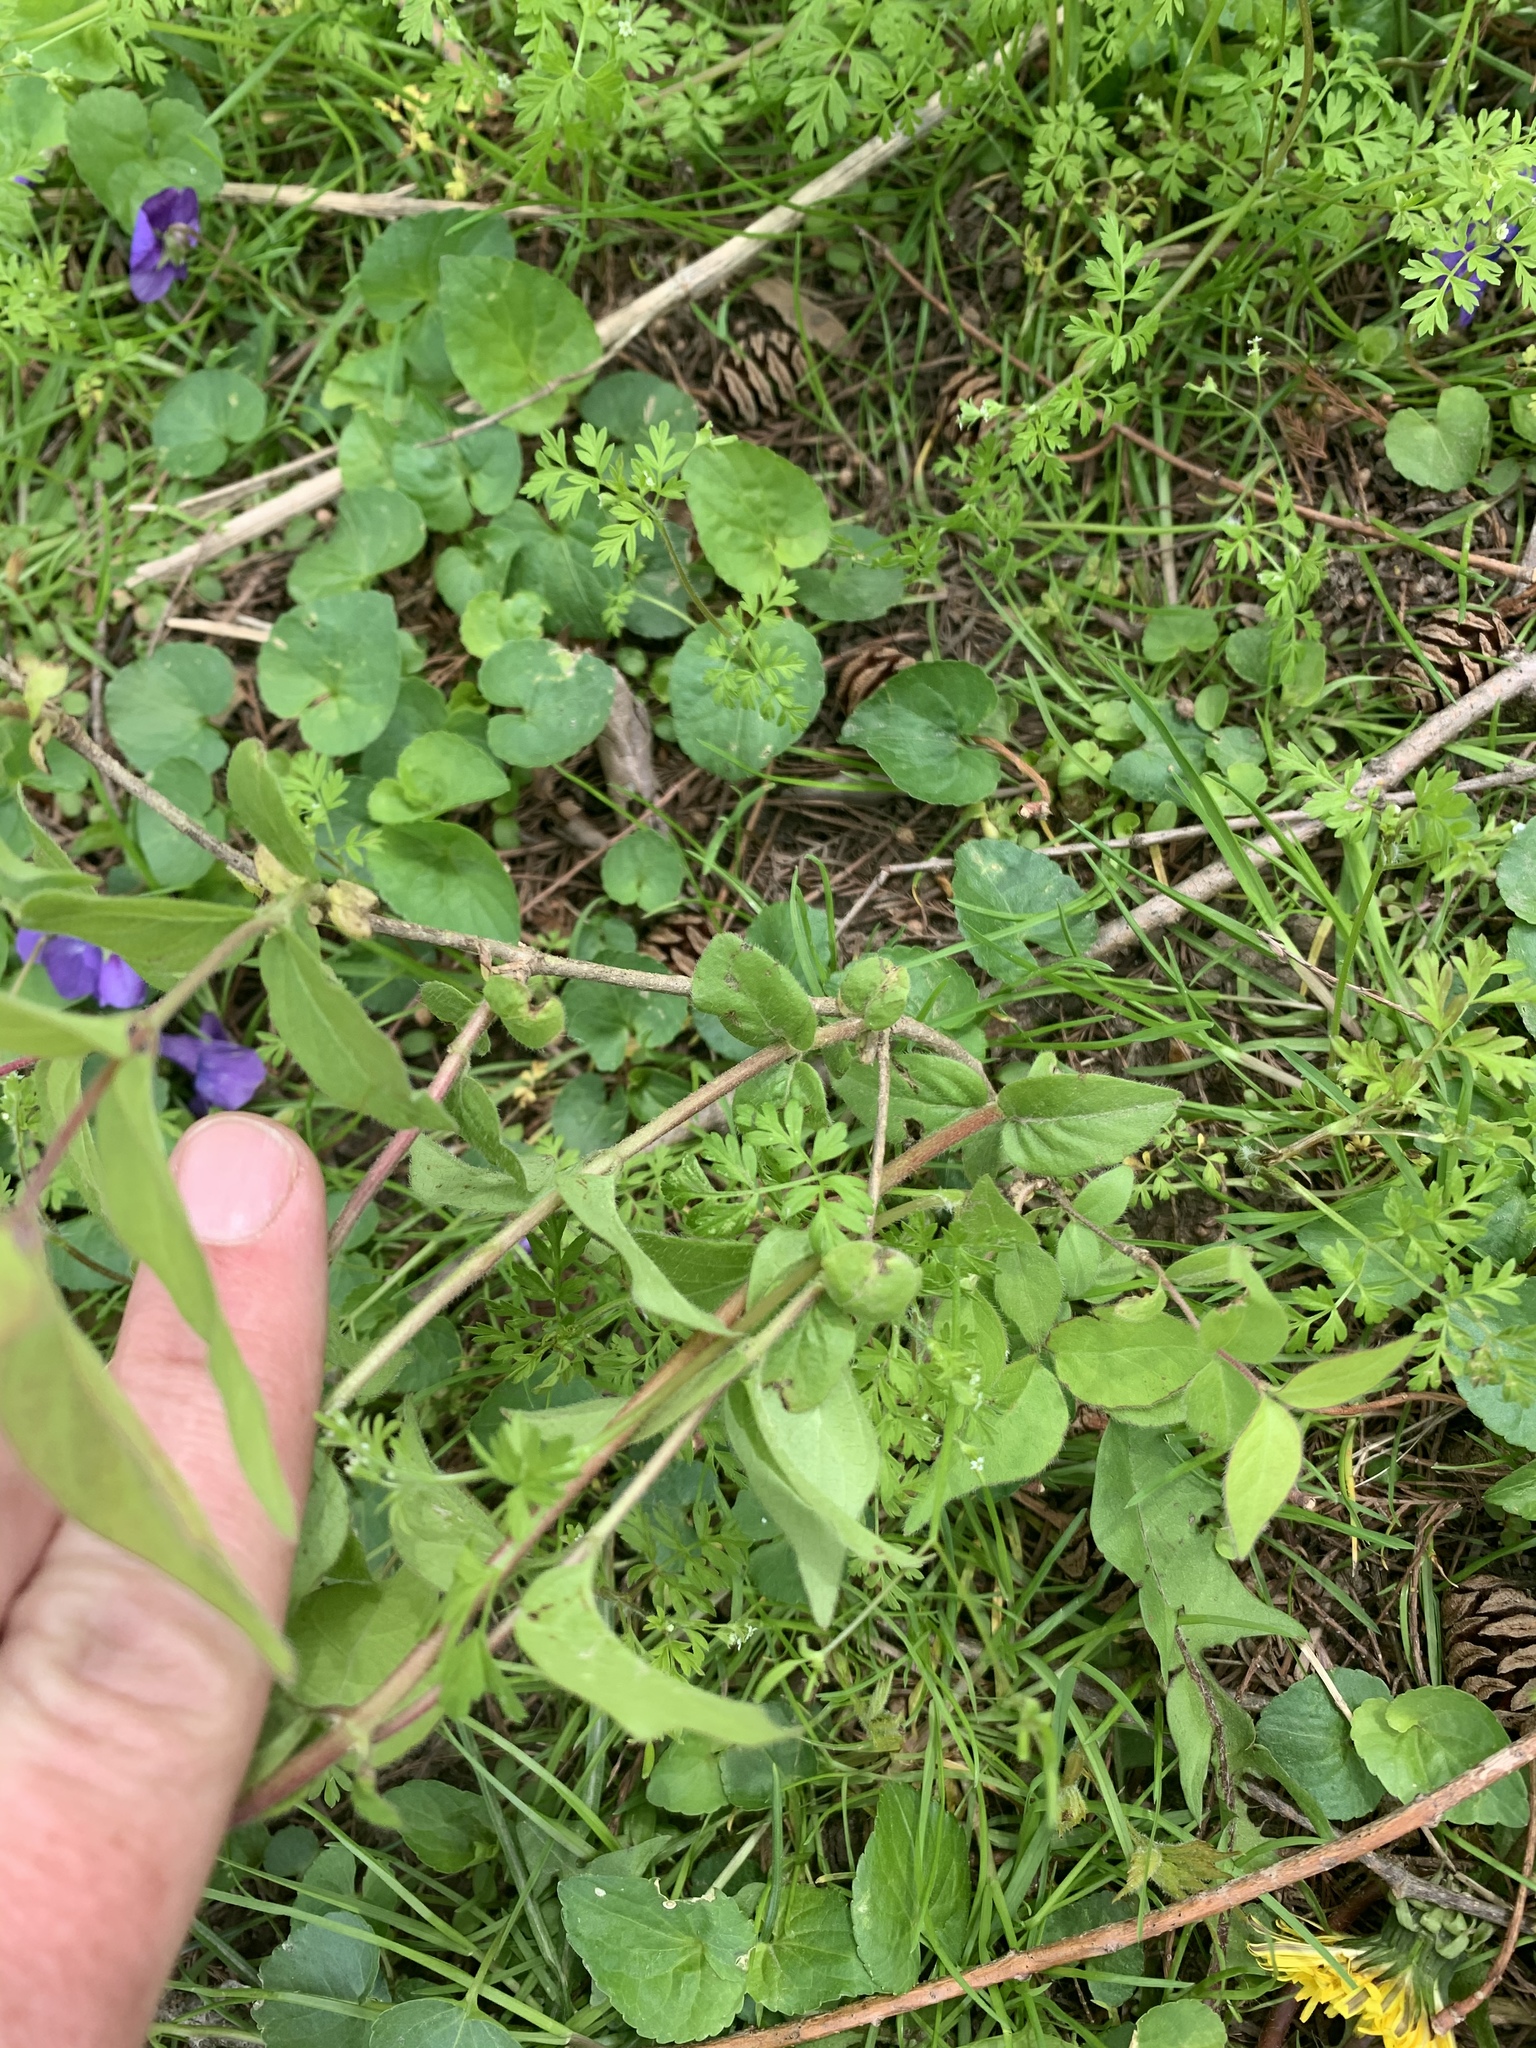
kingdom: Plantae
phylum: Tracheophyta
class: Magnoliopsida
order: Dipsacales
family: Caprifoliaceae
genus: Lonicera
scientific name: Lonicera maackii
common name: Amur honeysuckle
